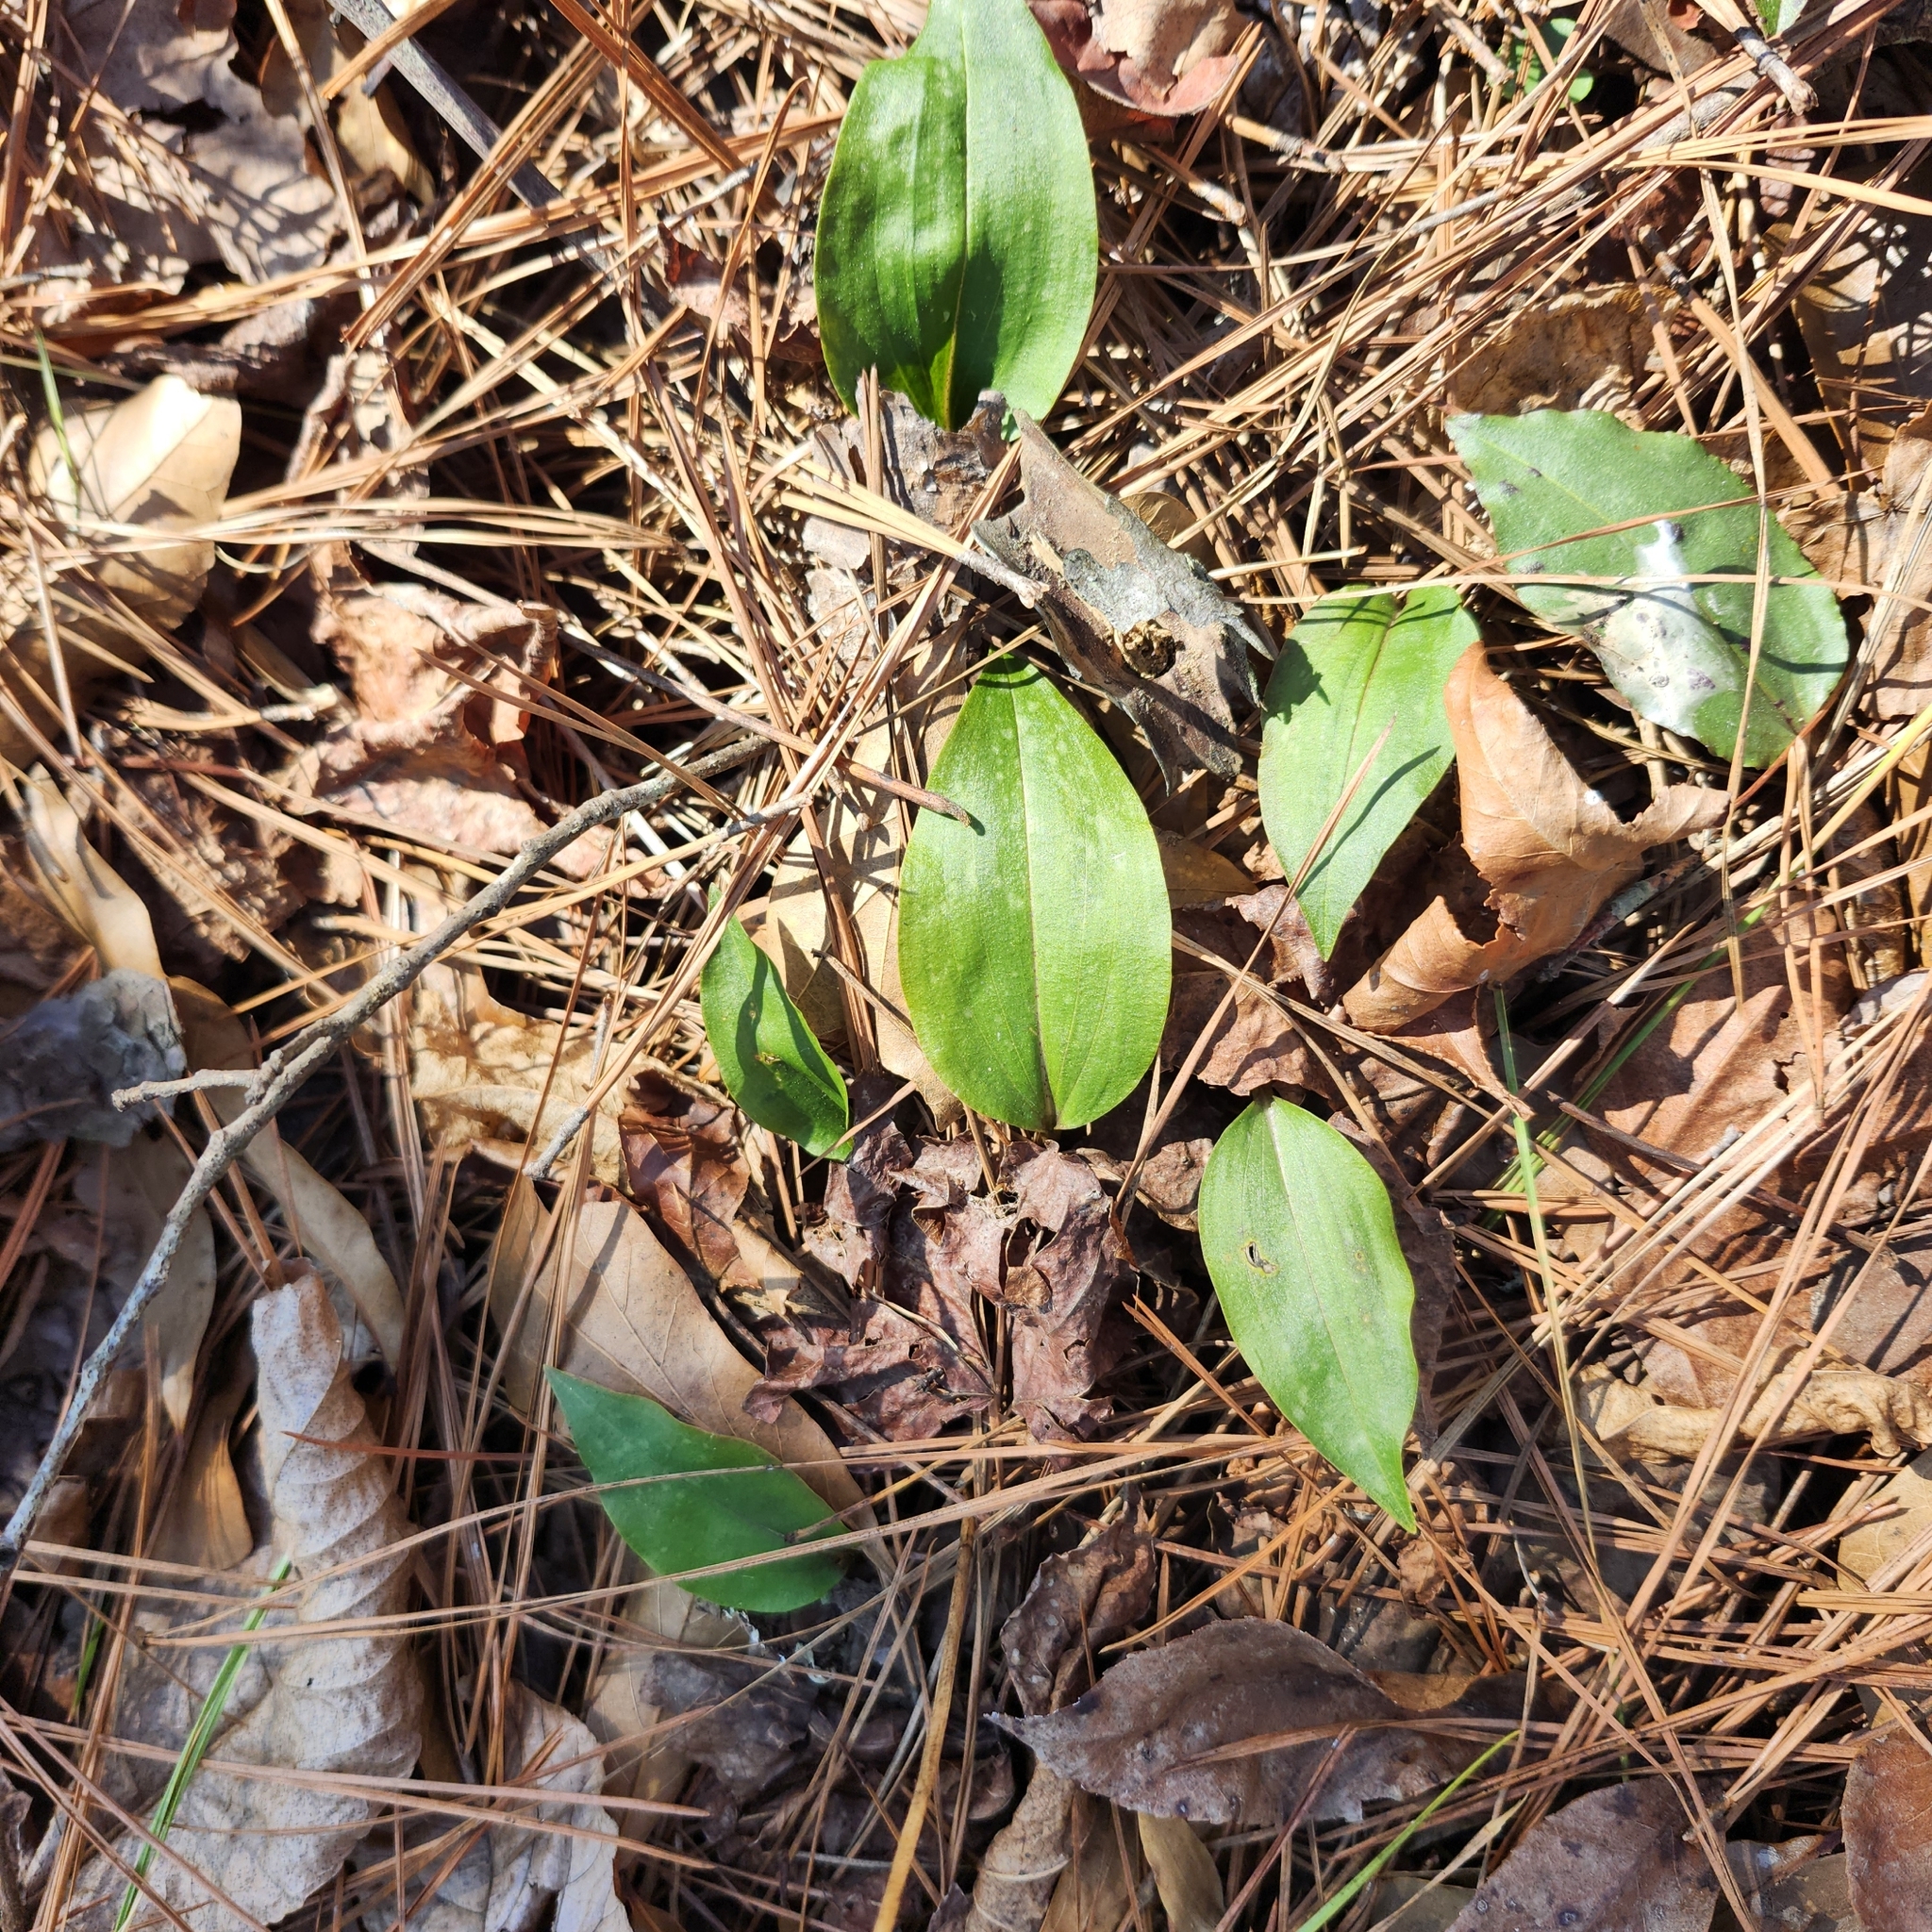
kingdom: Plantae
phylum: Tracheophyta
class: Liliopsida
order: Asparagales
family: Orchidaceae
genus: Tipularia
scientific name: Tipularia discolor
